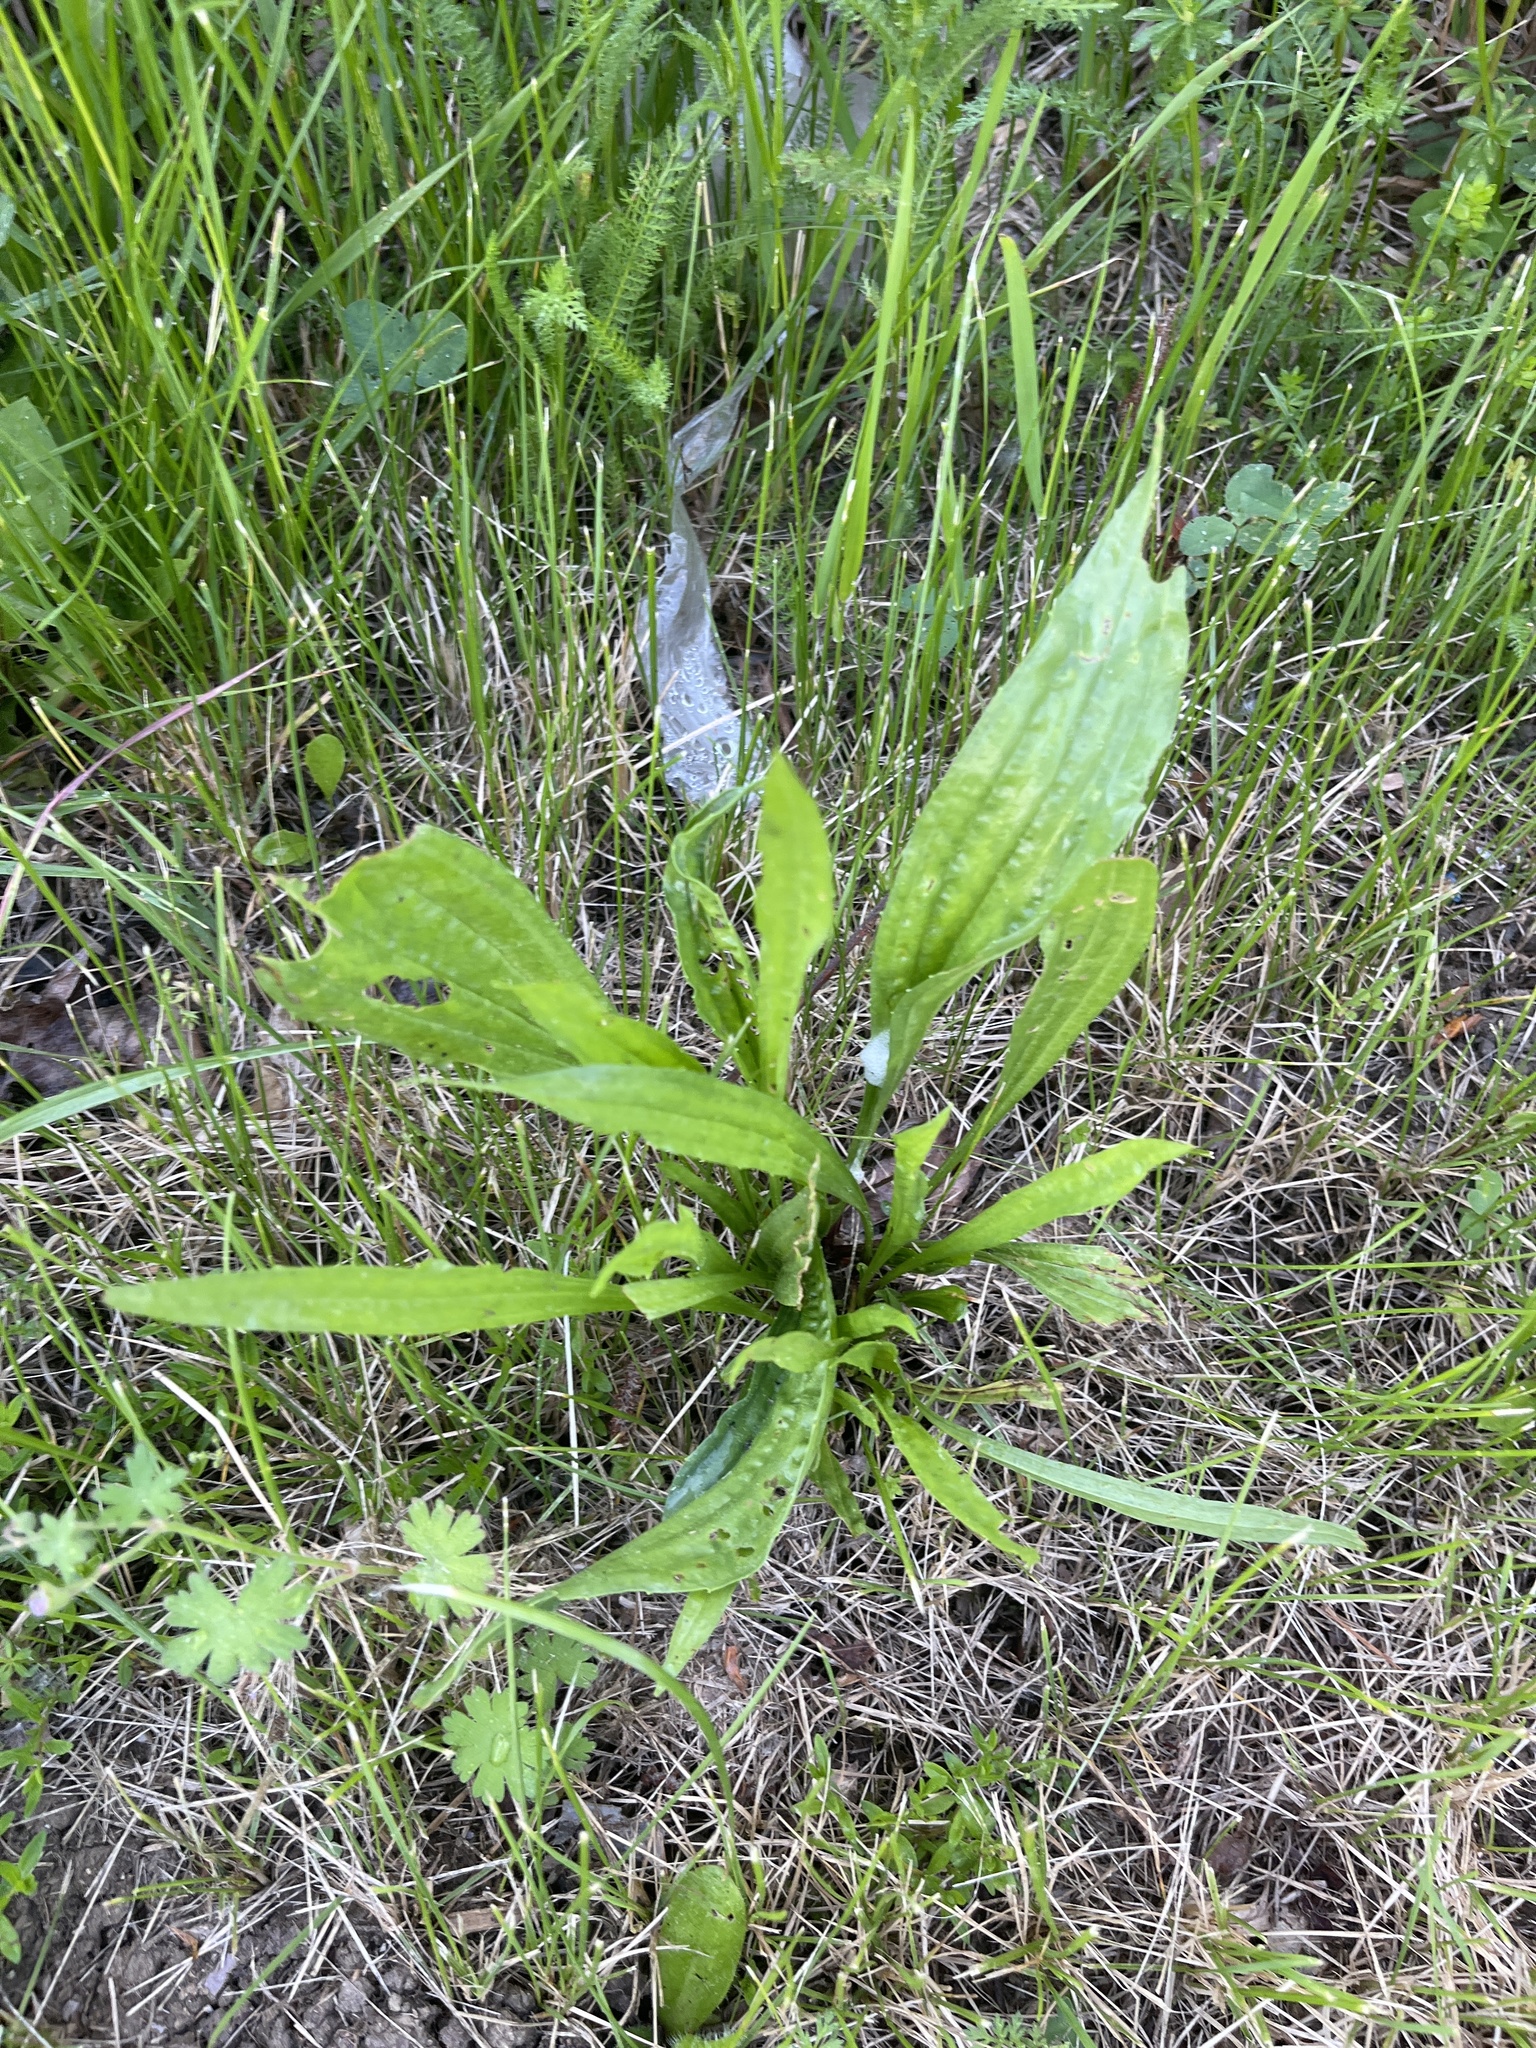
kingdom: Plantae
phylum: Tracheophyta
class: Magnoliopsida
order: Lamiales
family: Plantaginaceae
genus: Plantago
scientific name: Plantago lanceolata
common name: Ribwort plantain
